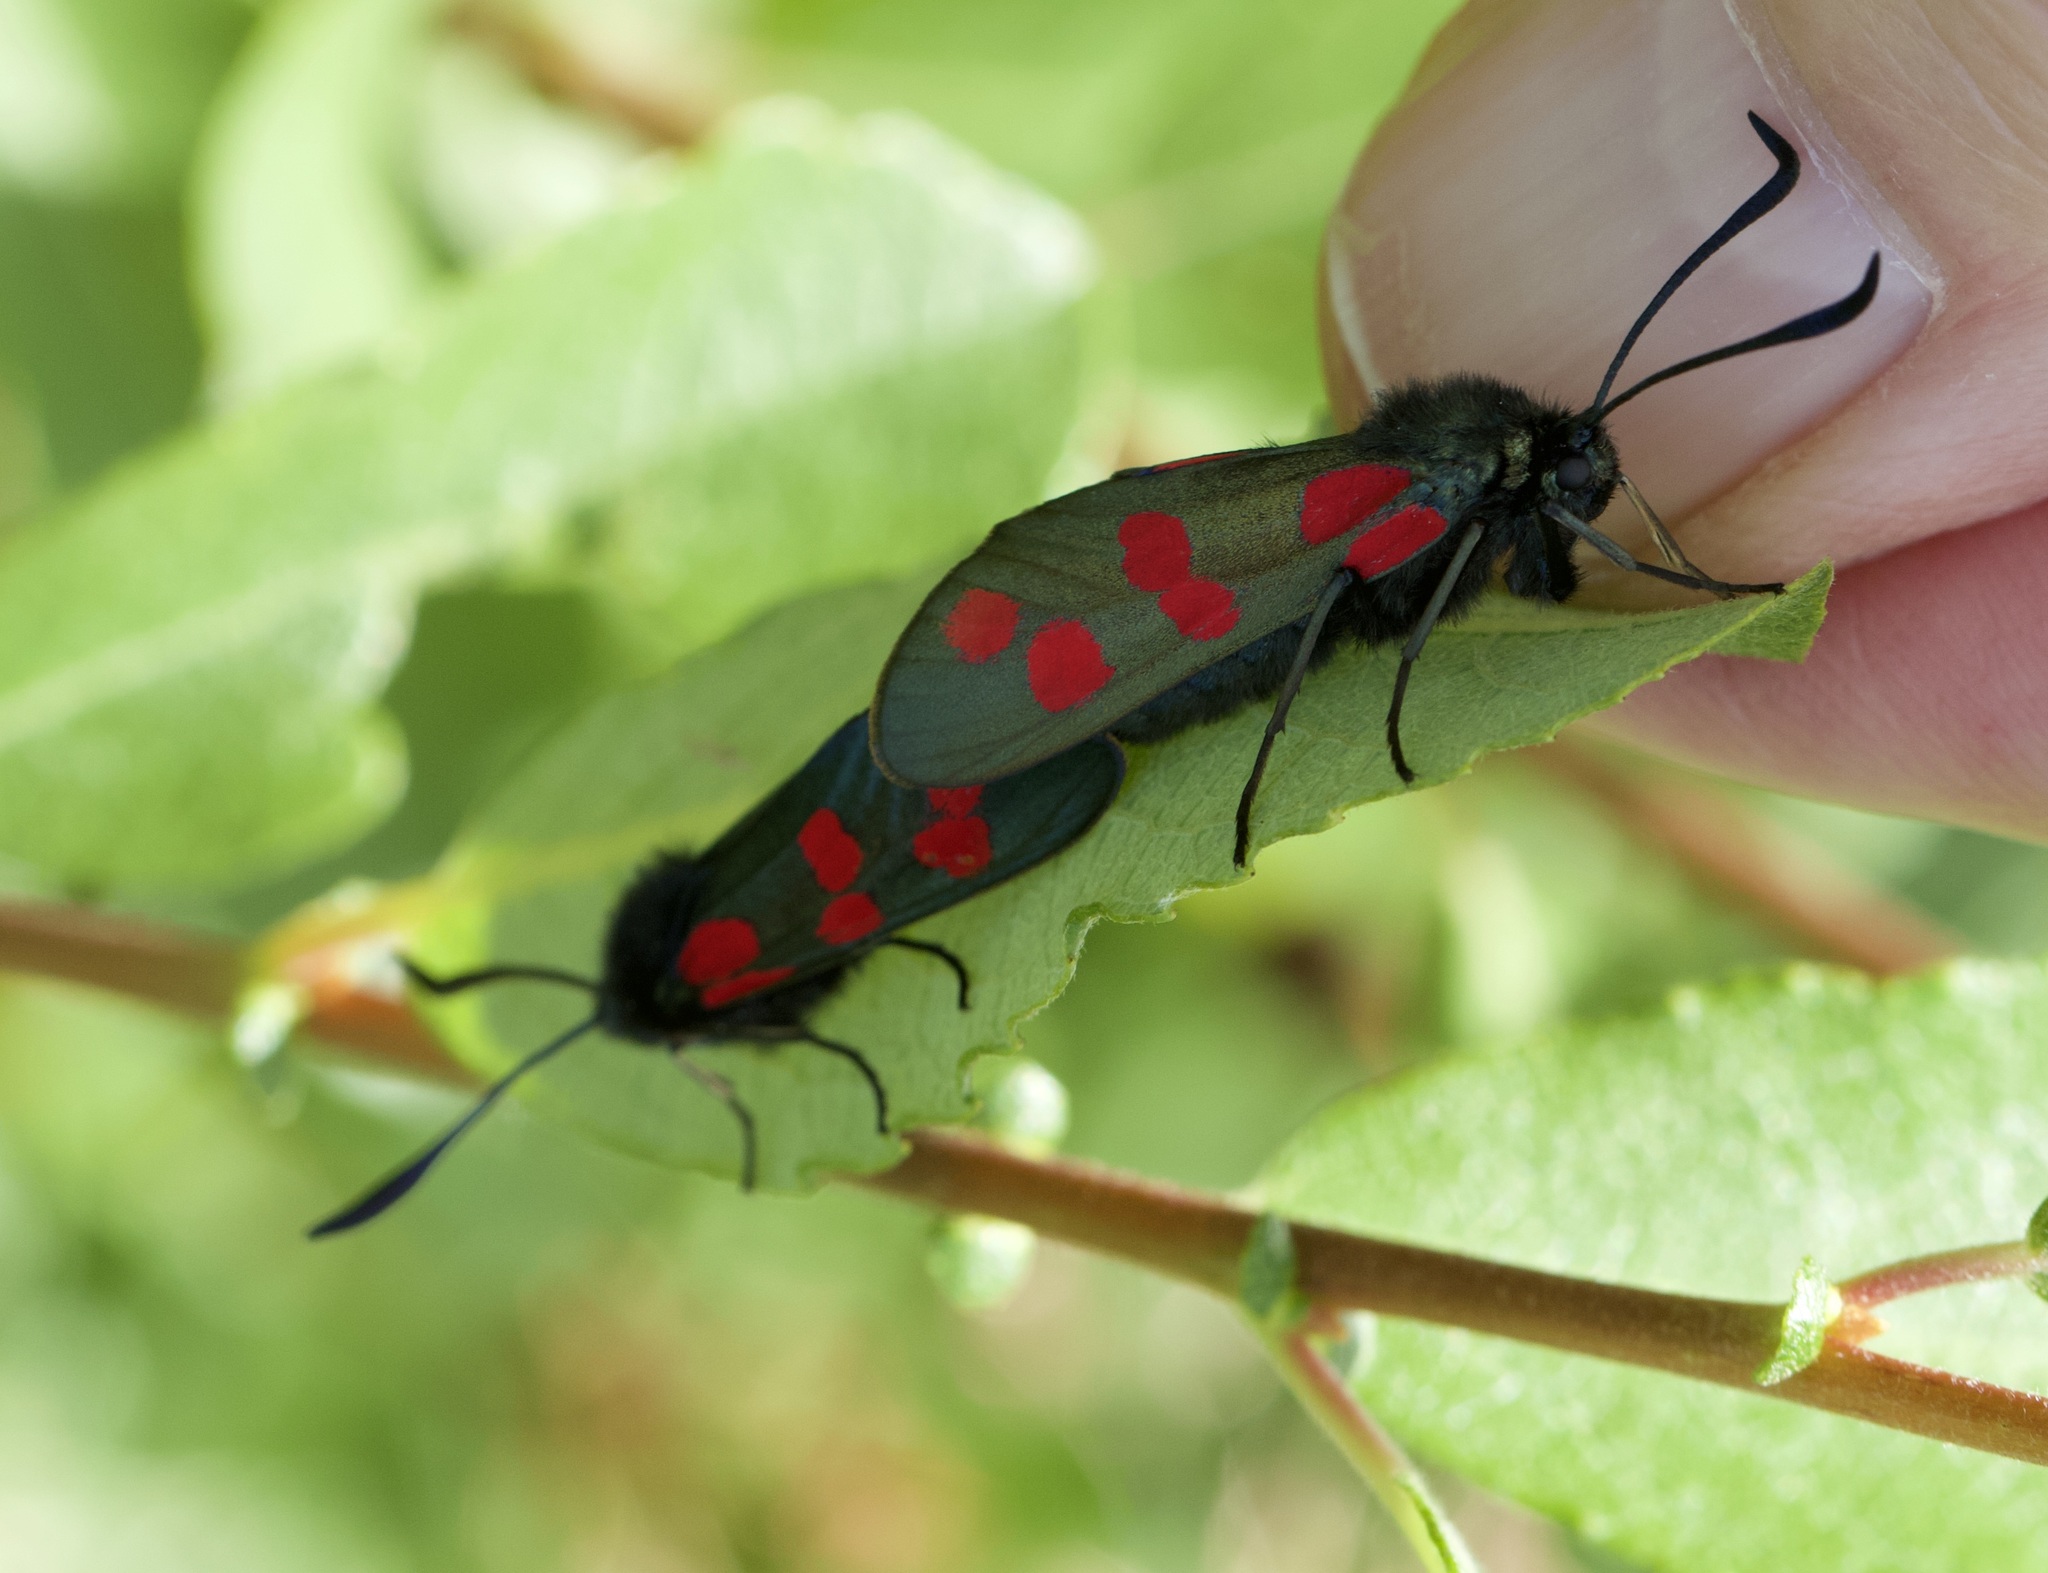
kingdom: Animalia
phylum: Arthropoda
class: Insecta
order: Lepidoptera
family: Zygaenidae
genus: Zygaena
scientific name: Zygaena filipendulae
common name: Six-spot burnet
